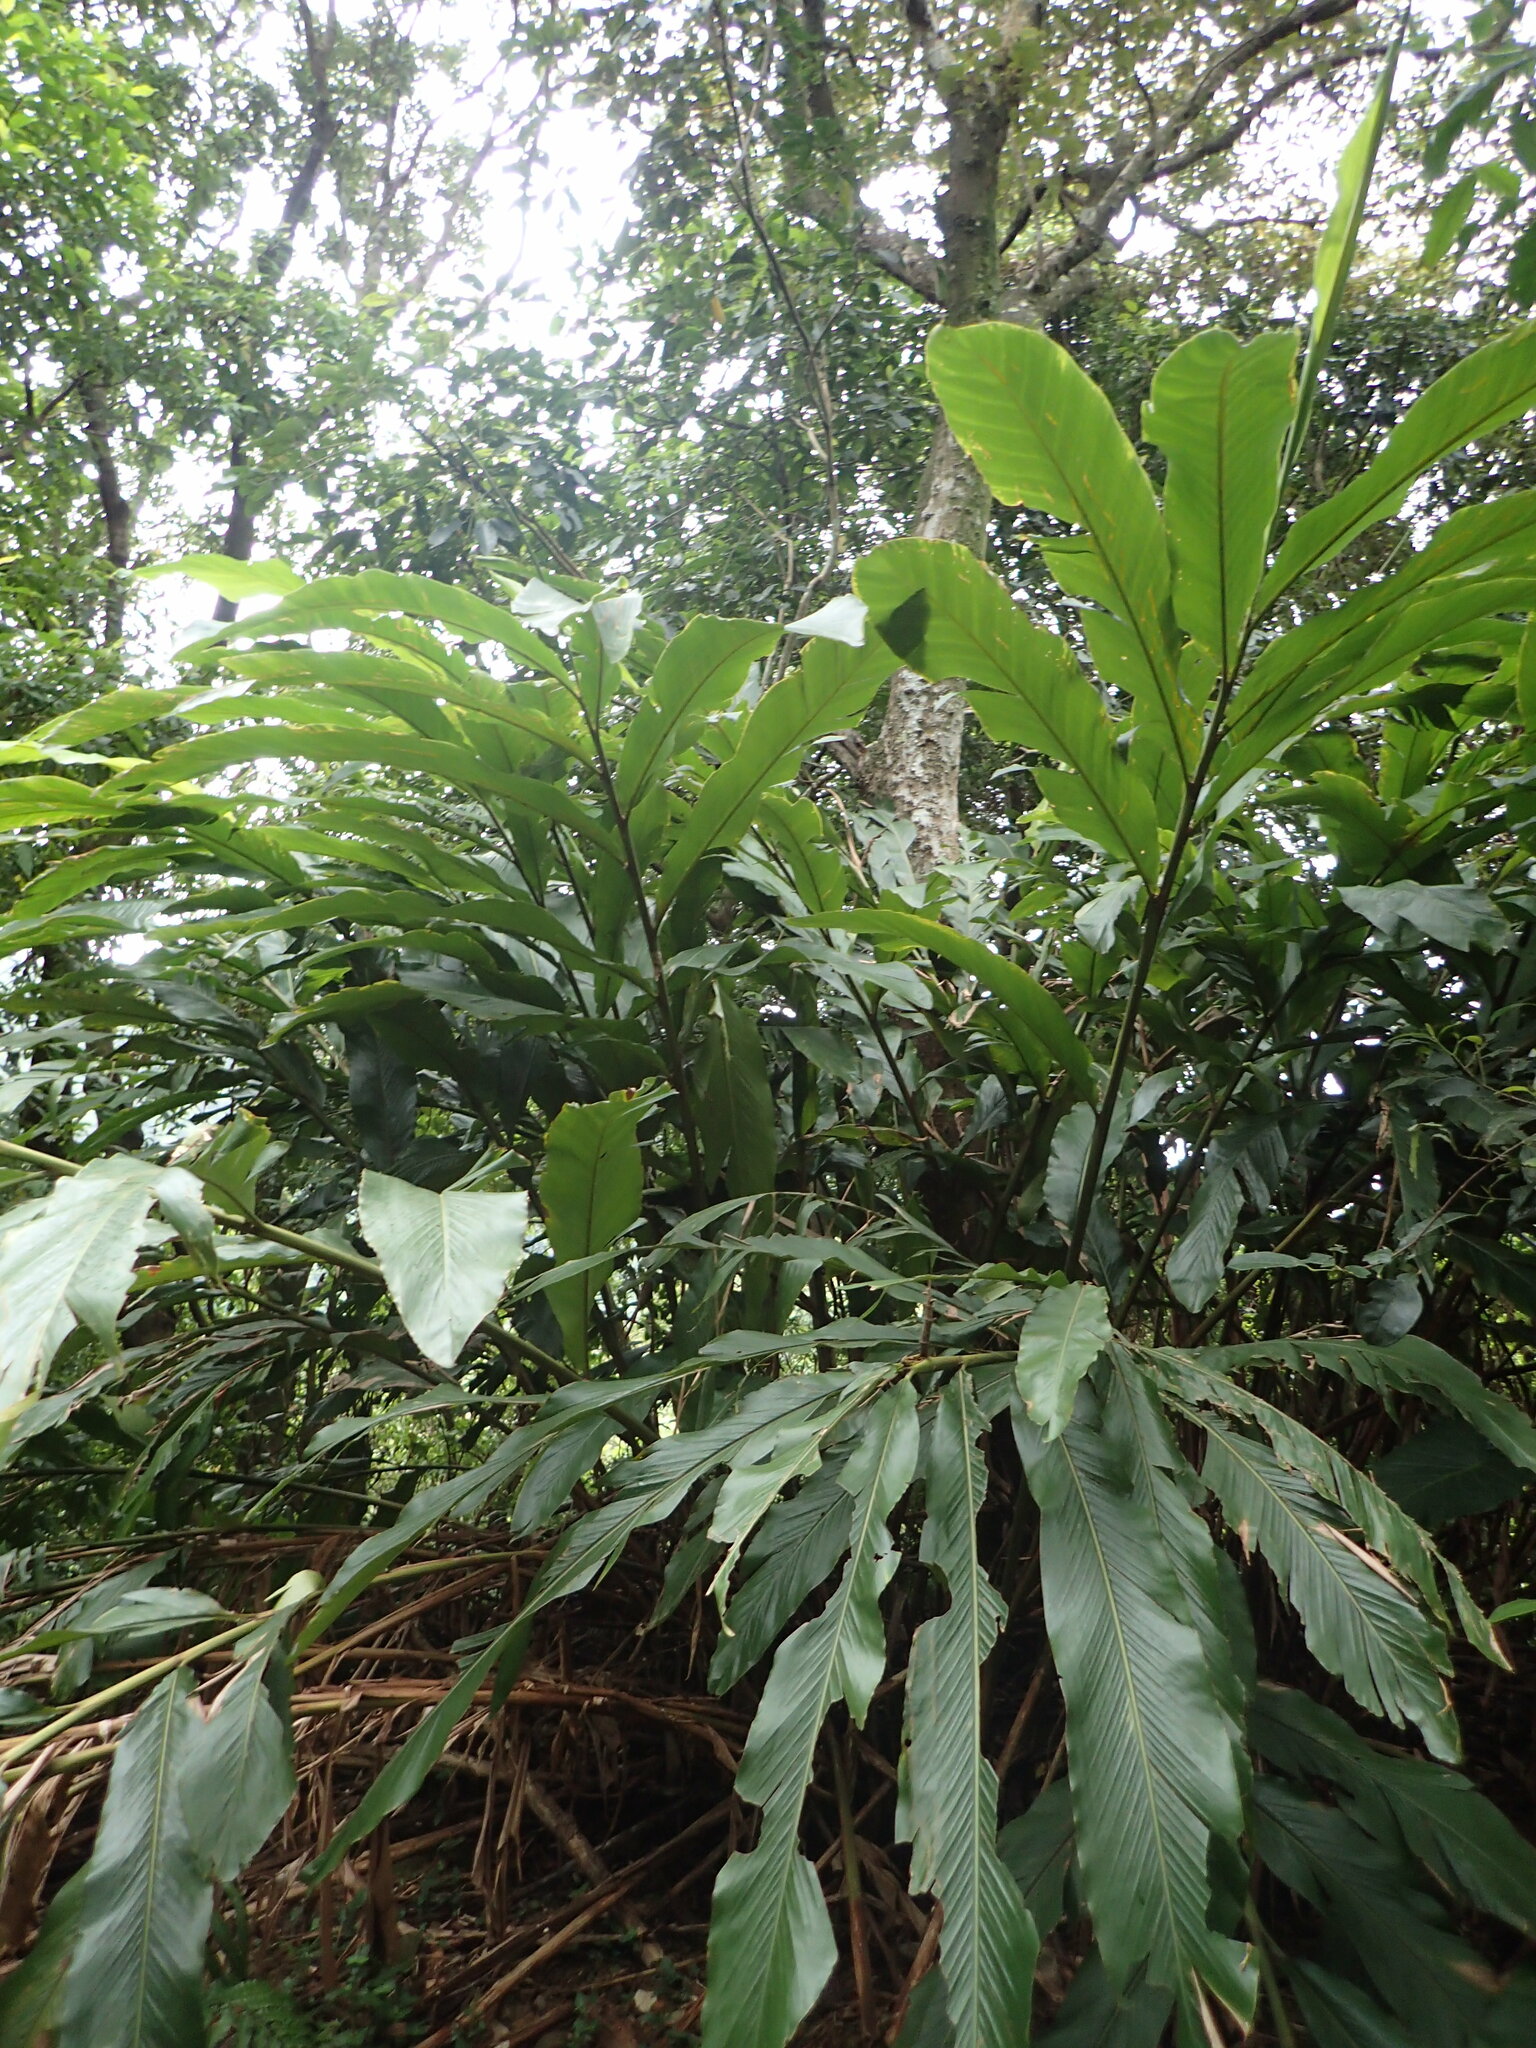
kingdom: Plantae
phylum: Tracheophyta
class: Liliopsida
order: Zingiberales
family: Zingiberaceae
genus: Alpinia
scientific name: Alpinia uraiensis
